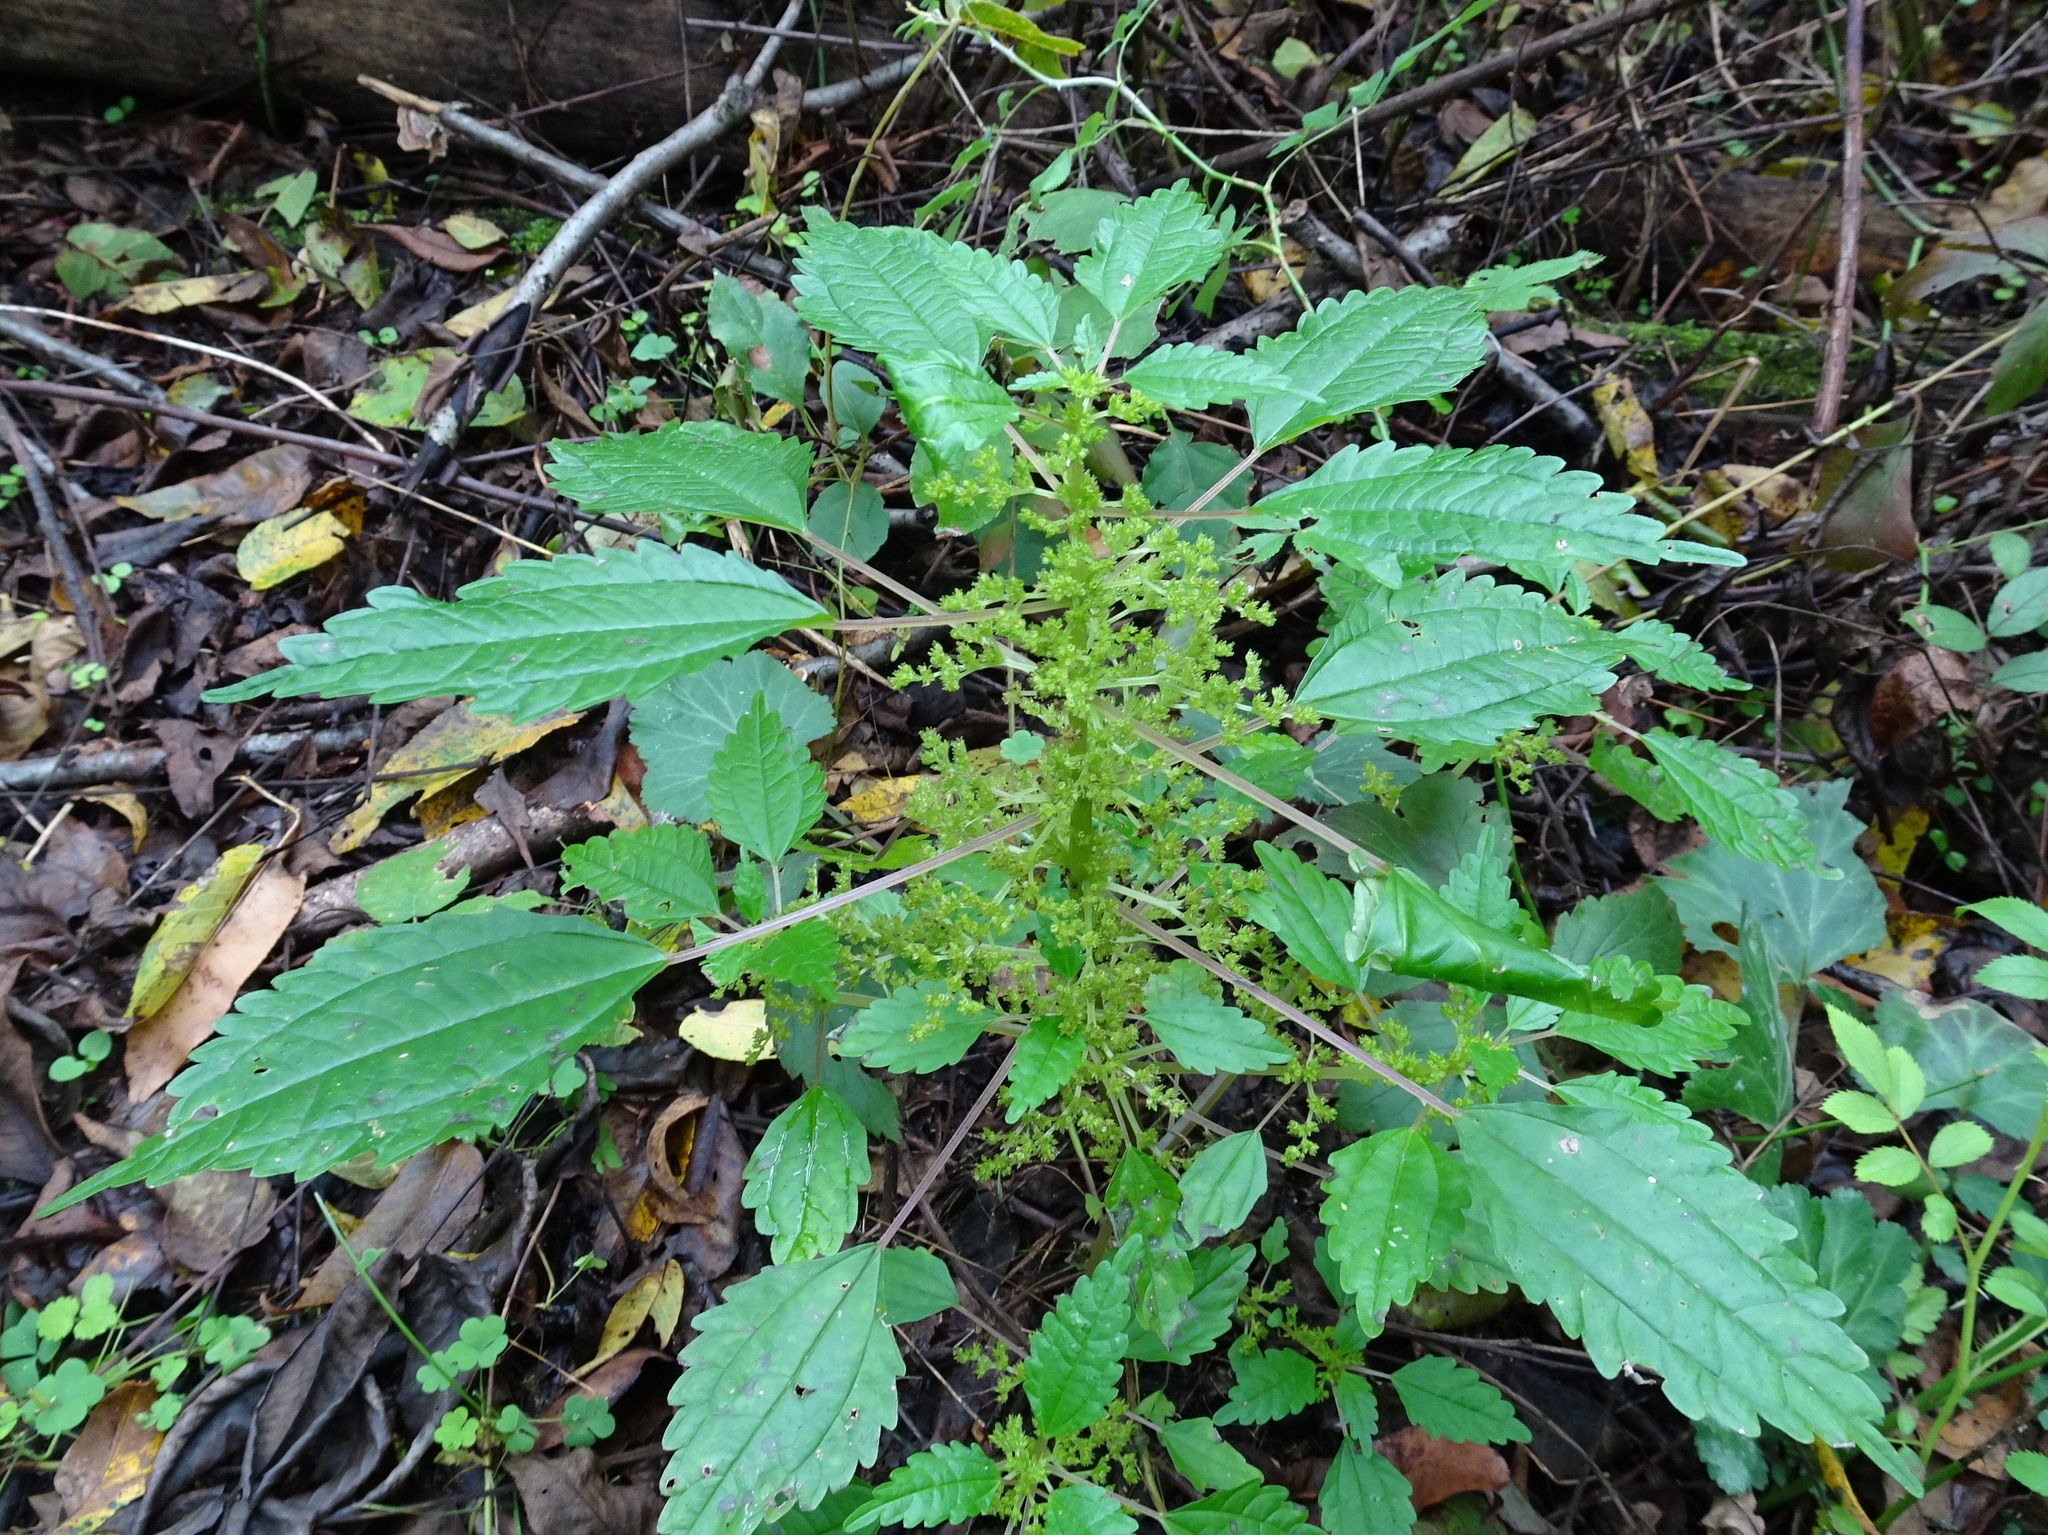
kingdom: Plantae
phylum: Tracheophyta
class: Magnoliopsida
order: Rosales
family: Urticaceae
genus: Pilea
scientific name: Pilea pumila
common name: Clearweed
